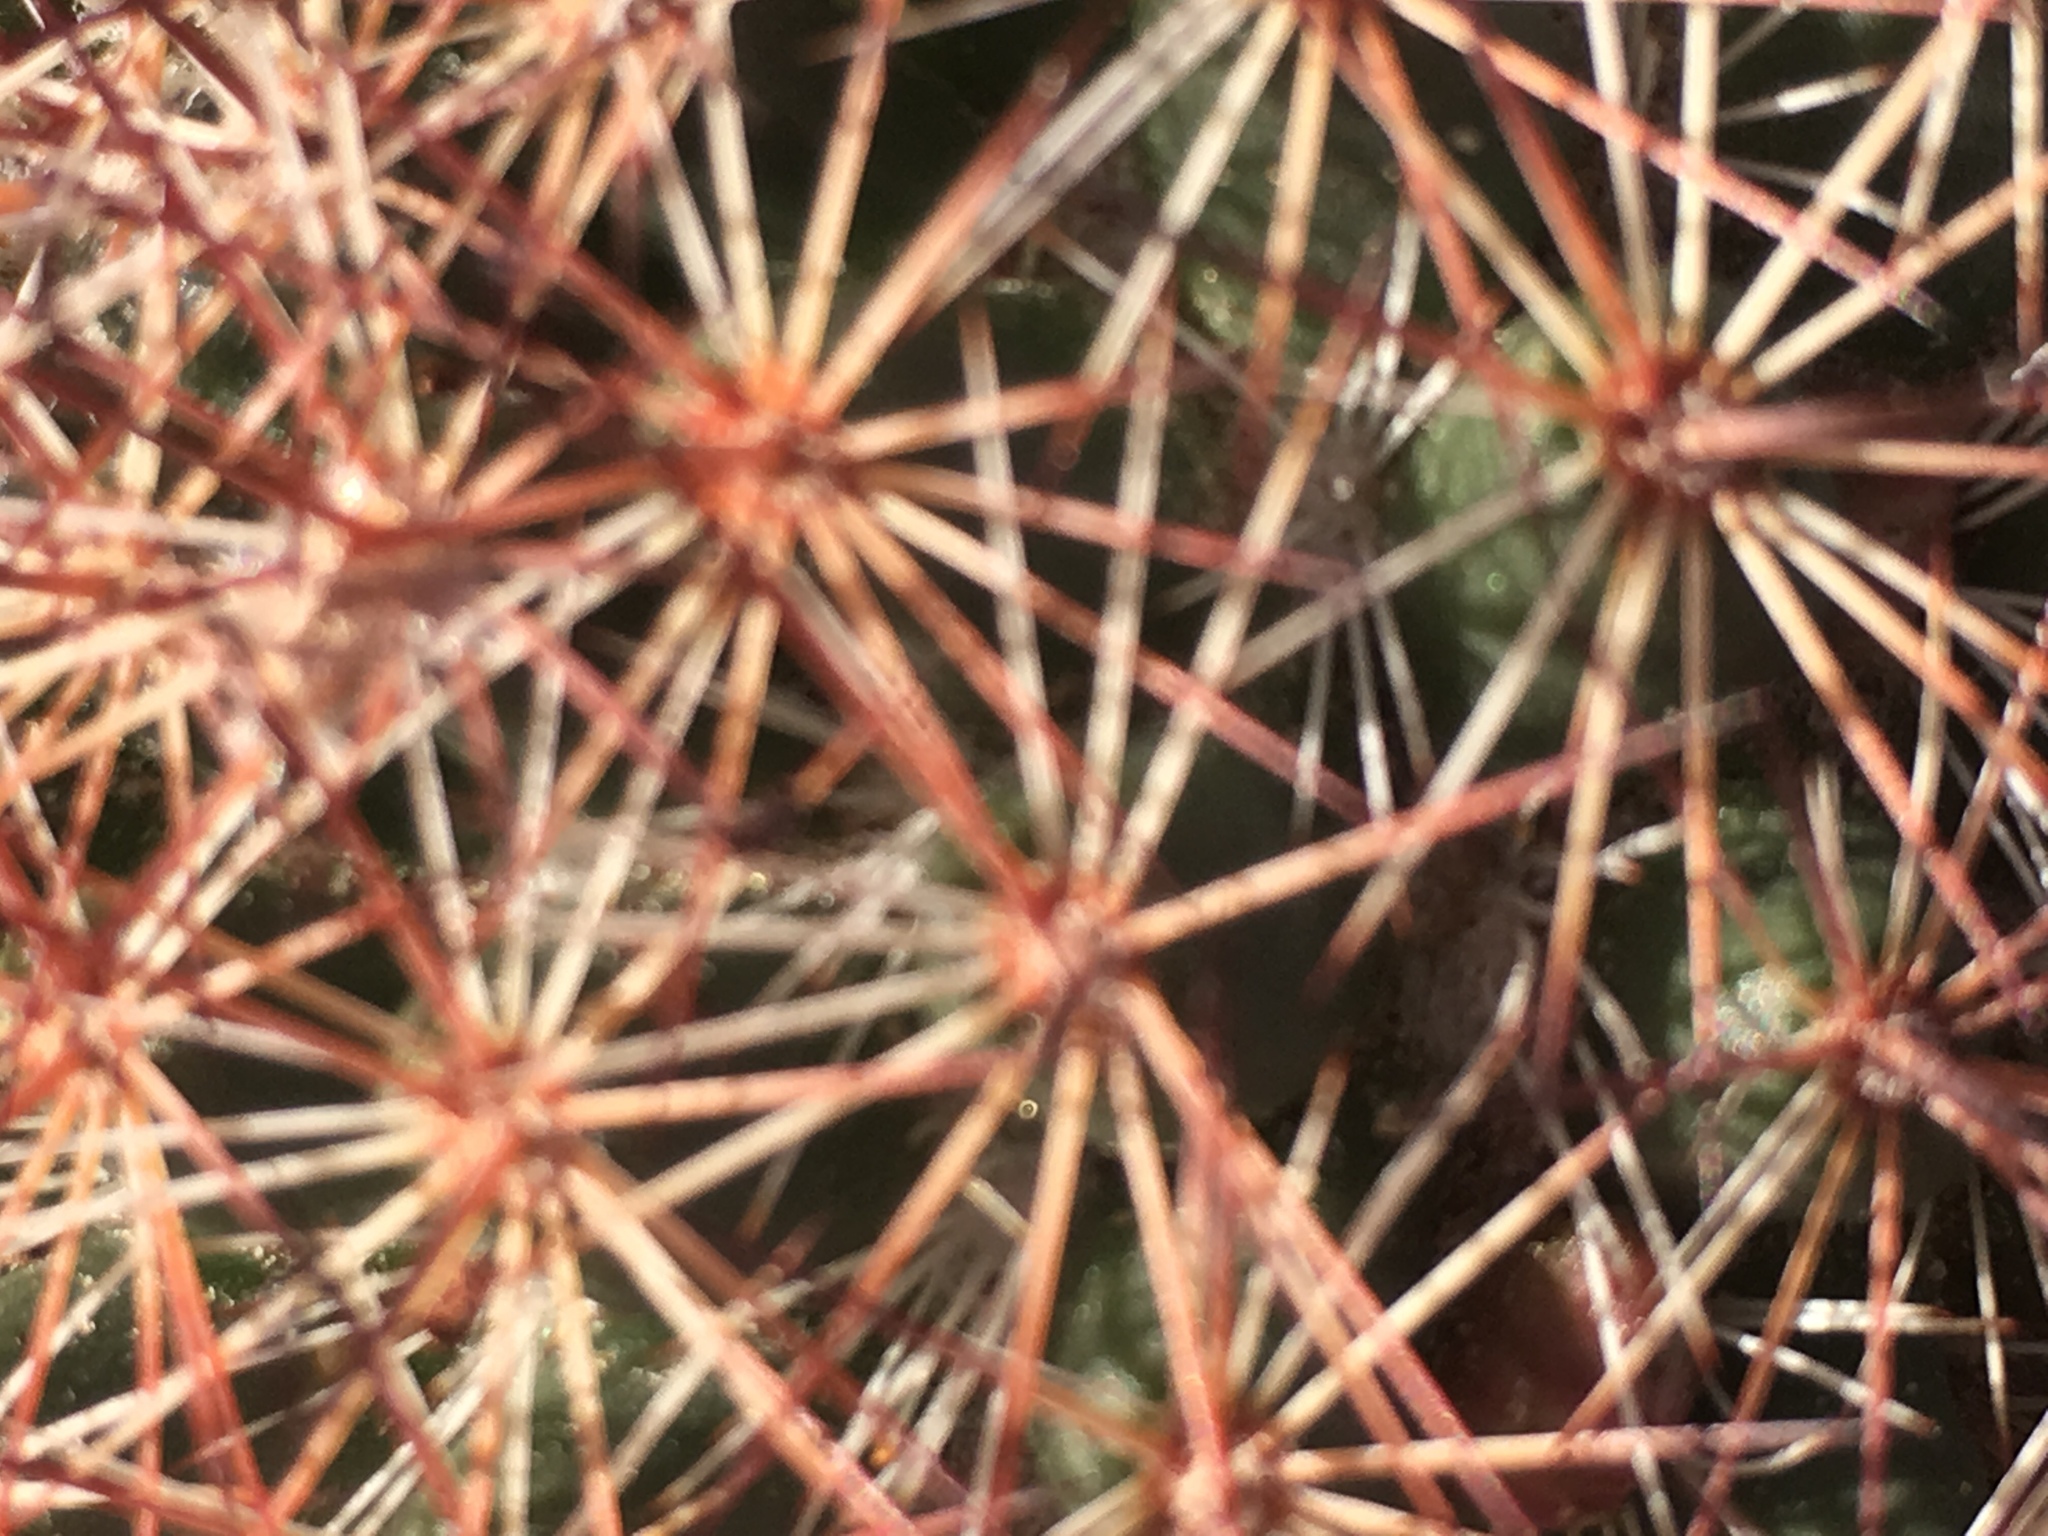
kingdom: Plantae
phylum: Tracheophyta
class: Magnoliopsida
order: Caryophyllales
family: Cactaceae
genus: Cochemiea
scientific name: Cochemiea dioica
